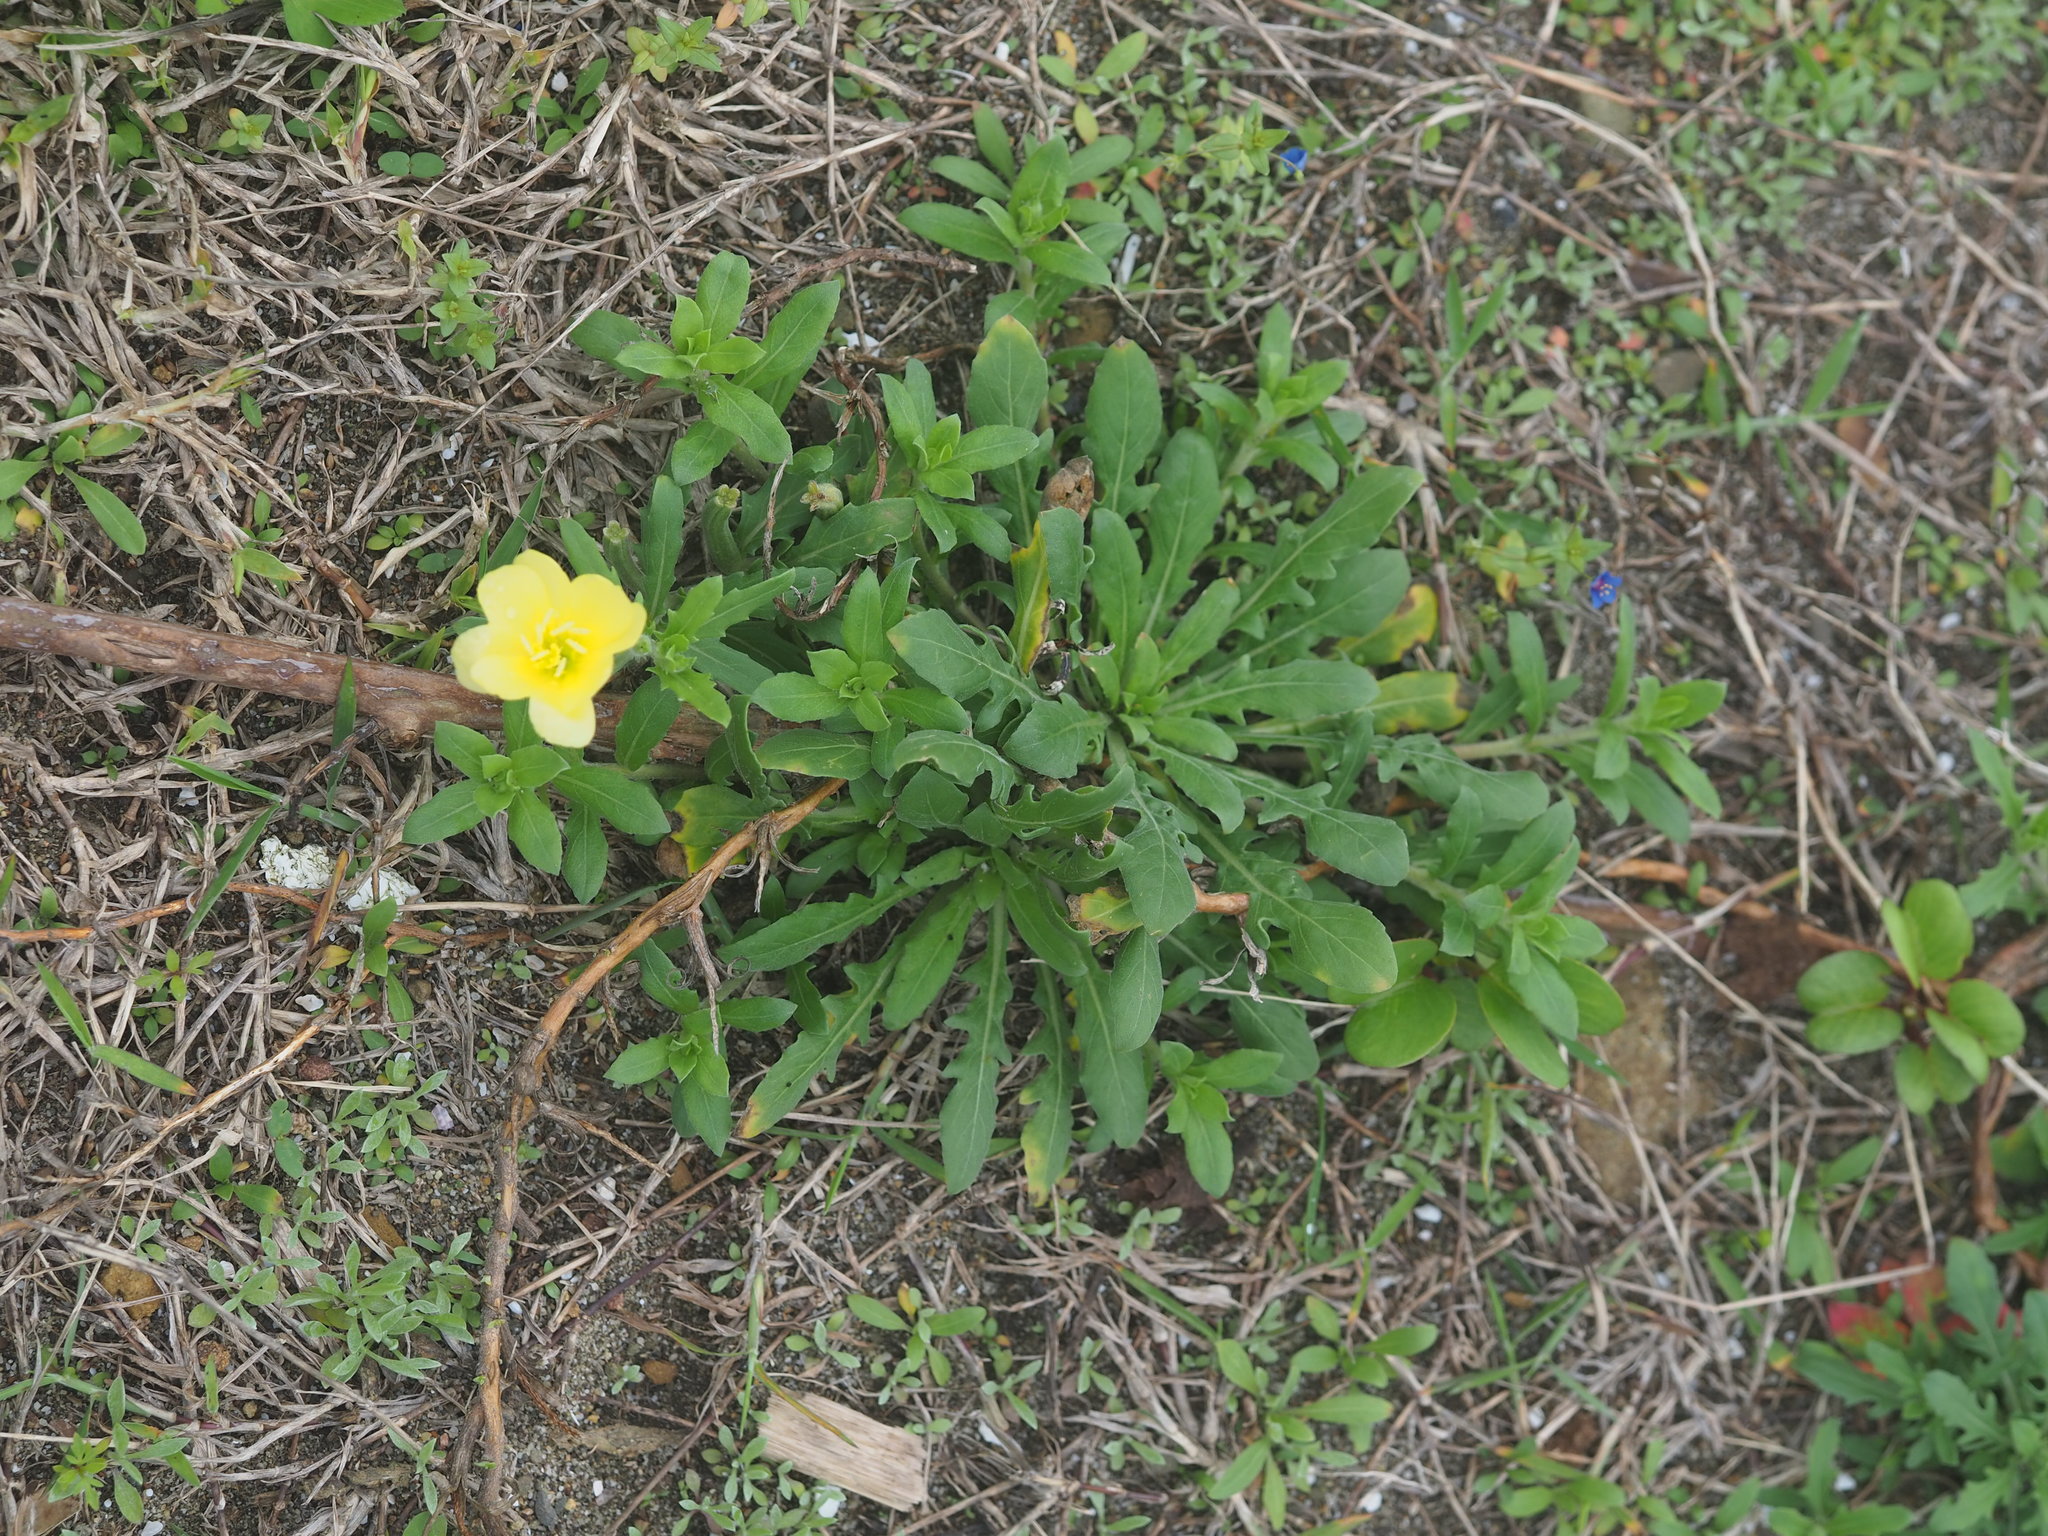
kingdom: Plantae
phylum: Tracheophyta
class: Magnoliopsida
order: Myrtales
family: Onagraceae
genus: Oenothera
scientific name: Oenothera laciniata
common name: Cut-leaved evening-primrose
